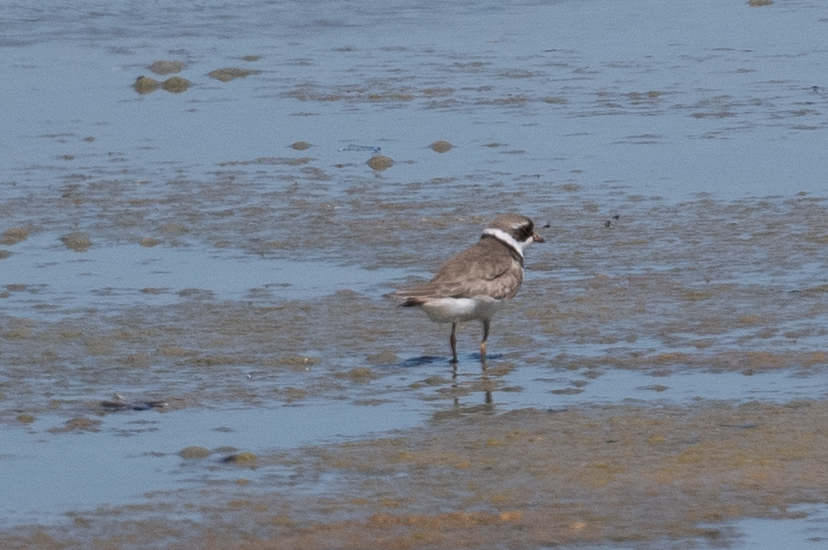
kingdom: Animalia
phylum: Chordata
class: Aves
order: Charadriiformes
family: Charadriidae
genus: Charadrius
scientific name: Charadrius semipalmatus
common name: Semipalmated plover
